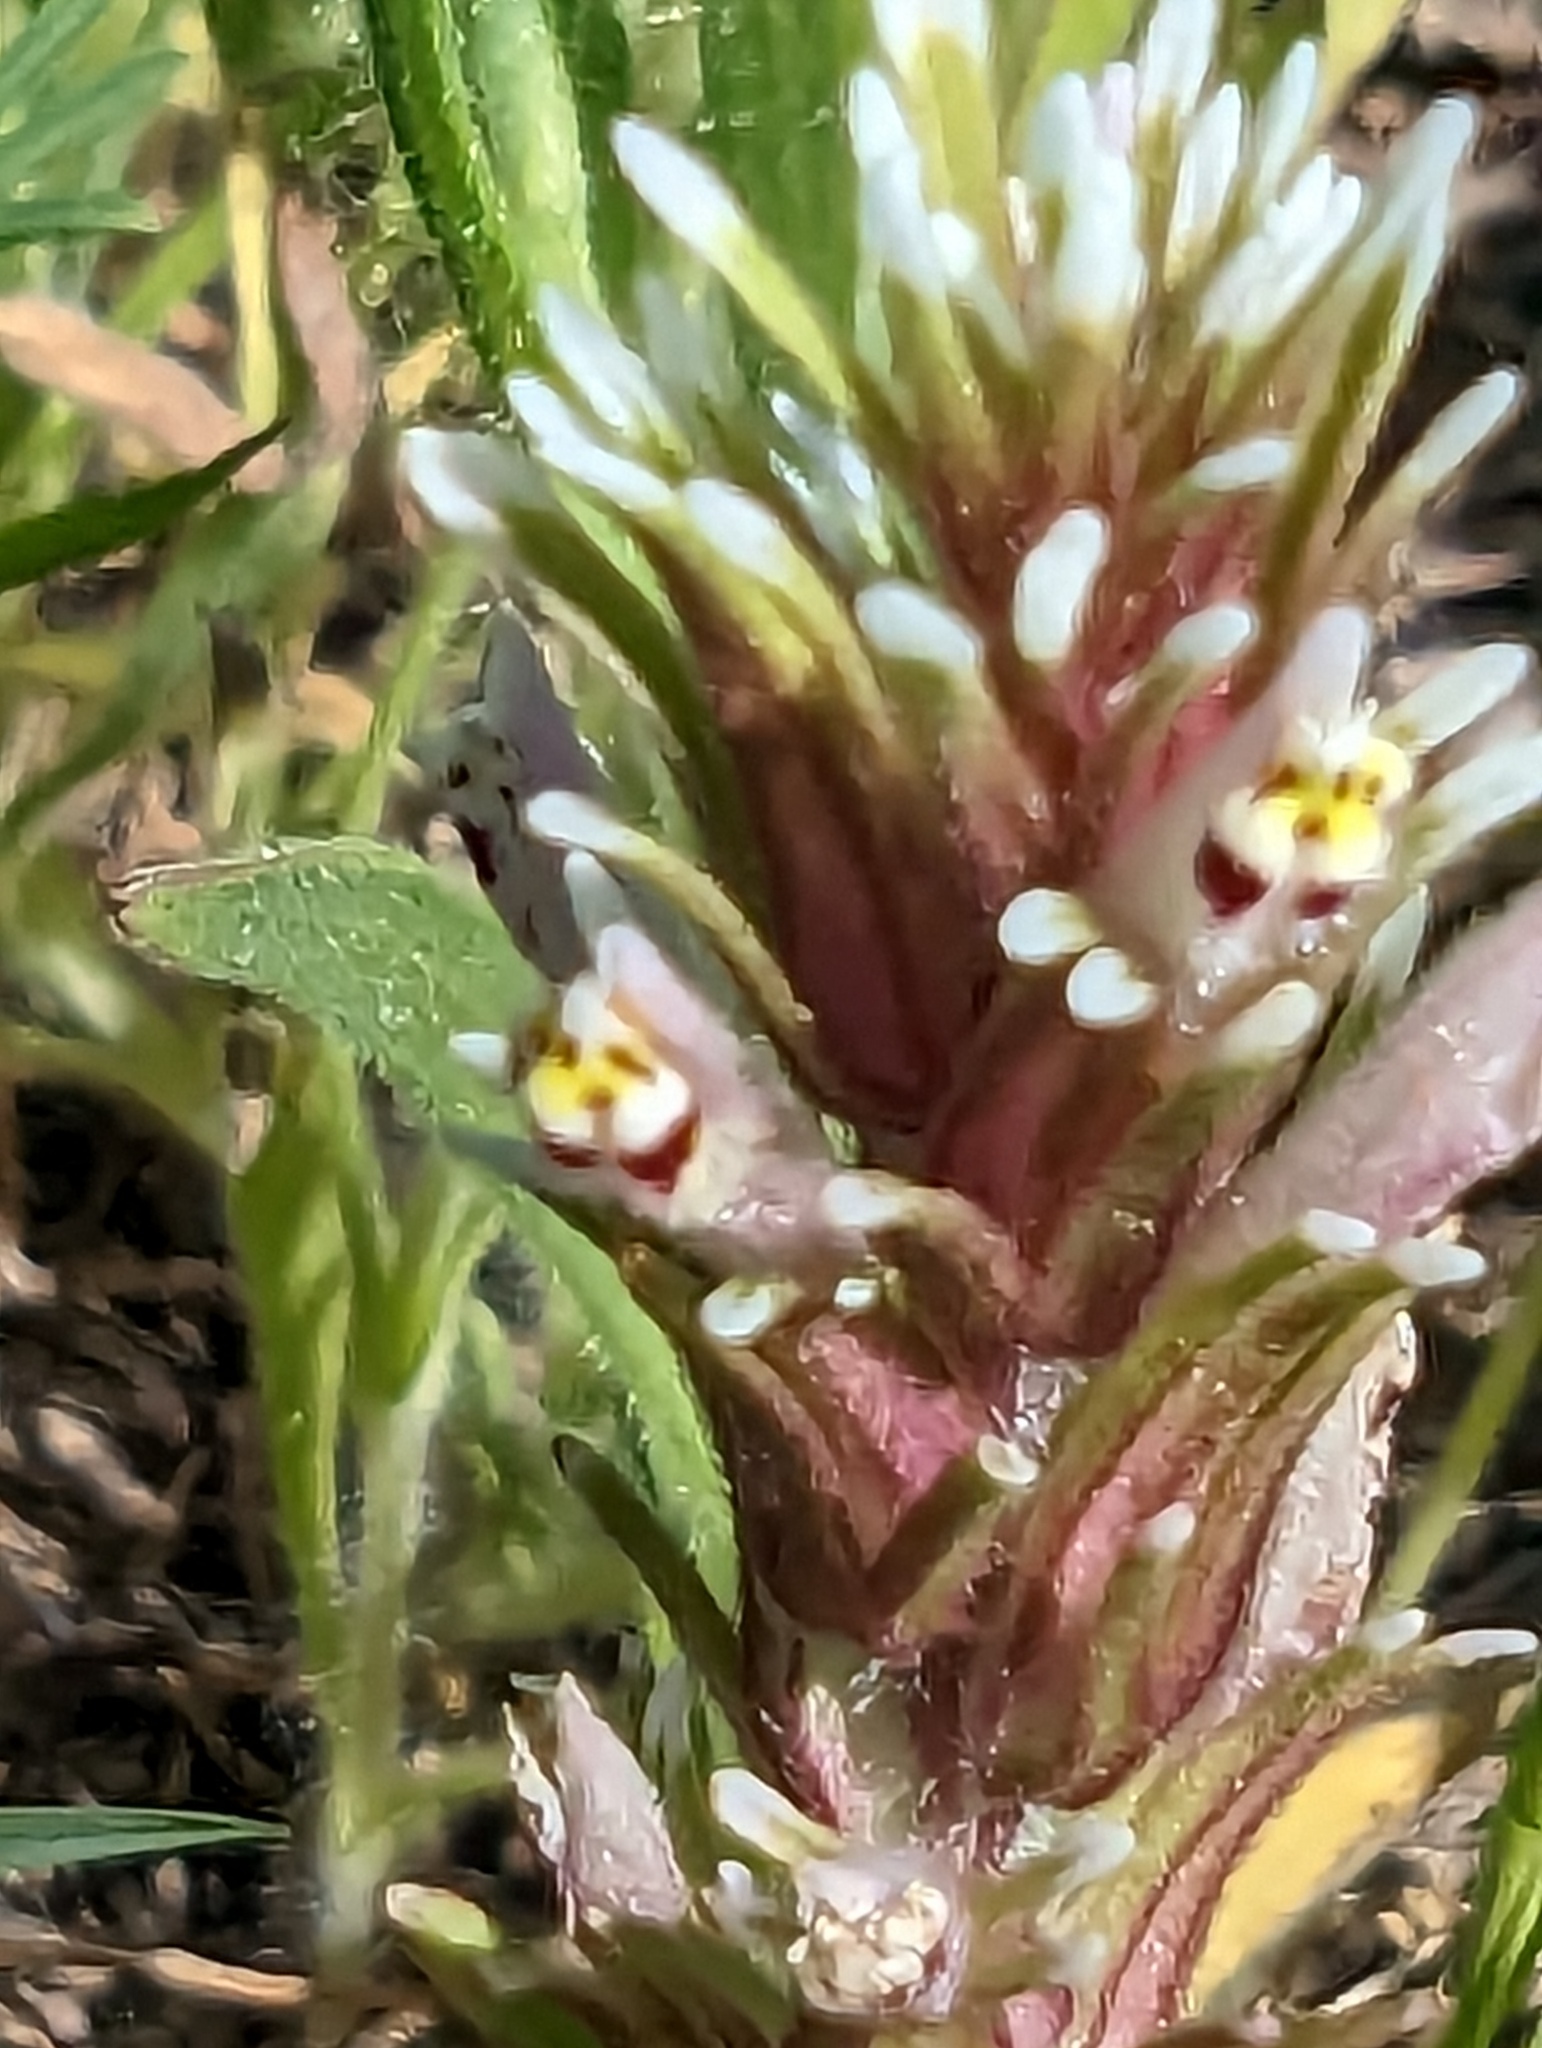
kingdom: Plantae
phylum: Tracheophyta
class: Magnoliopsida
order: Lamiales
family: Orobanchaceae
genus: Castilleja
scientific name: Castilleja attenuata
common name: Valley tassels
